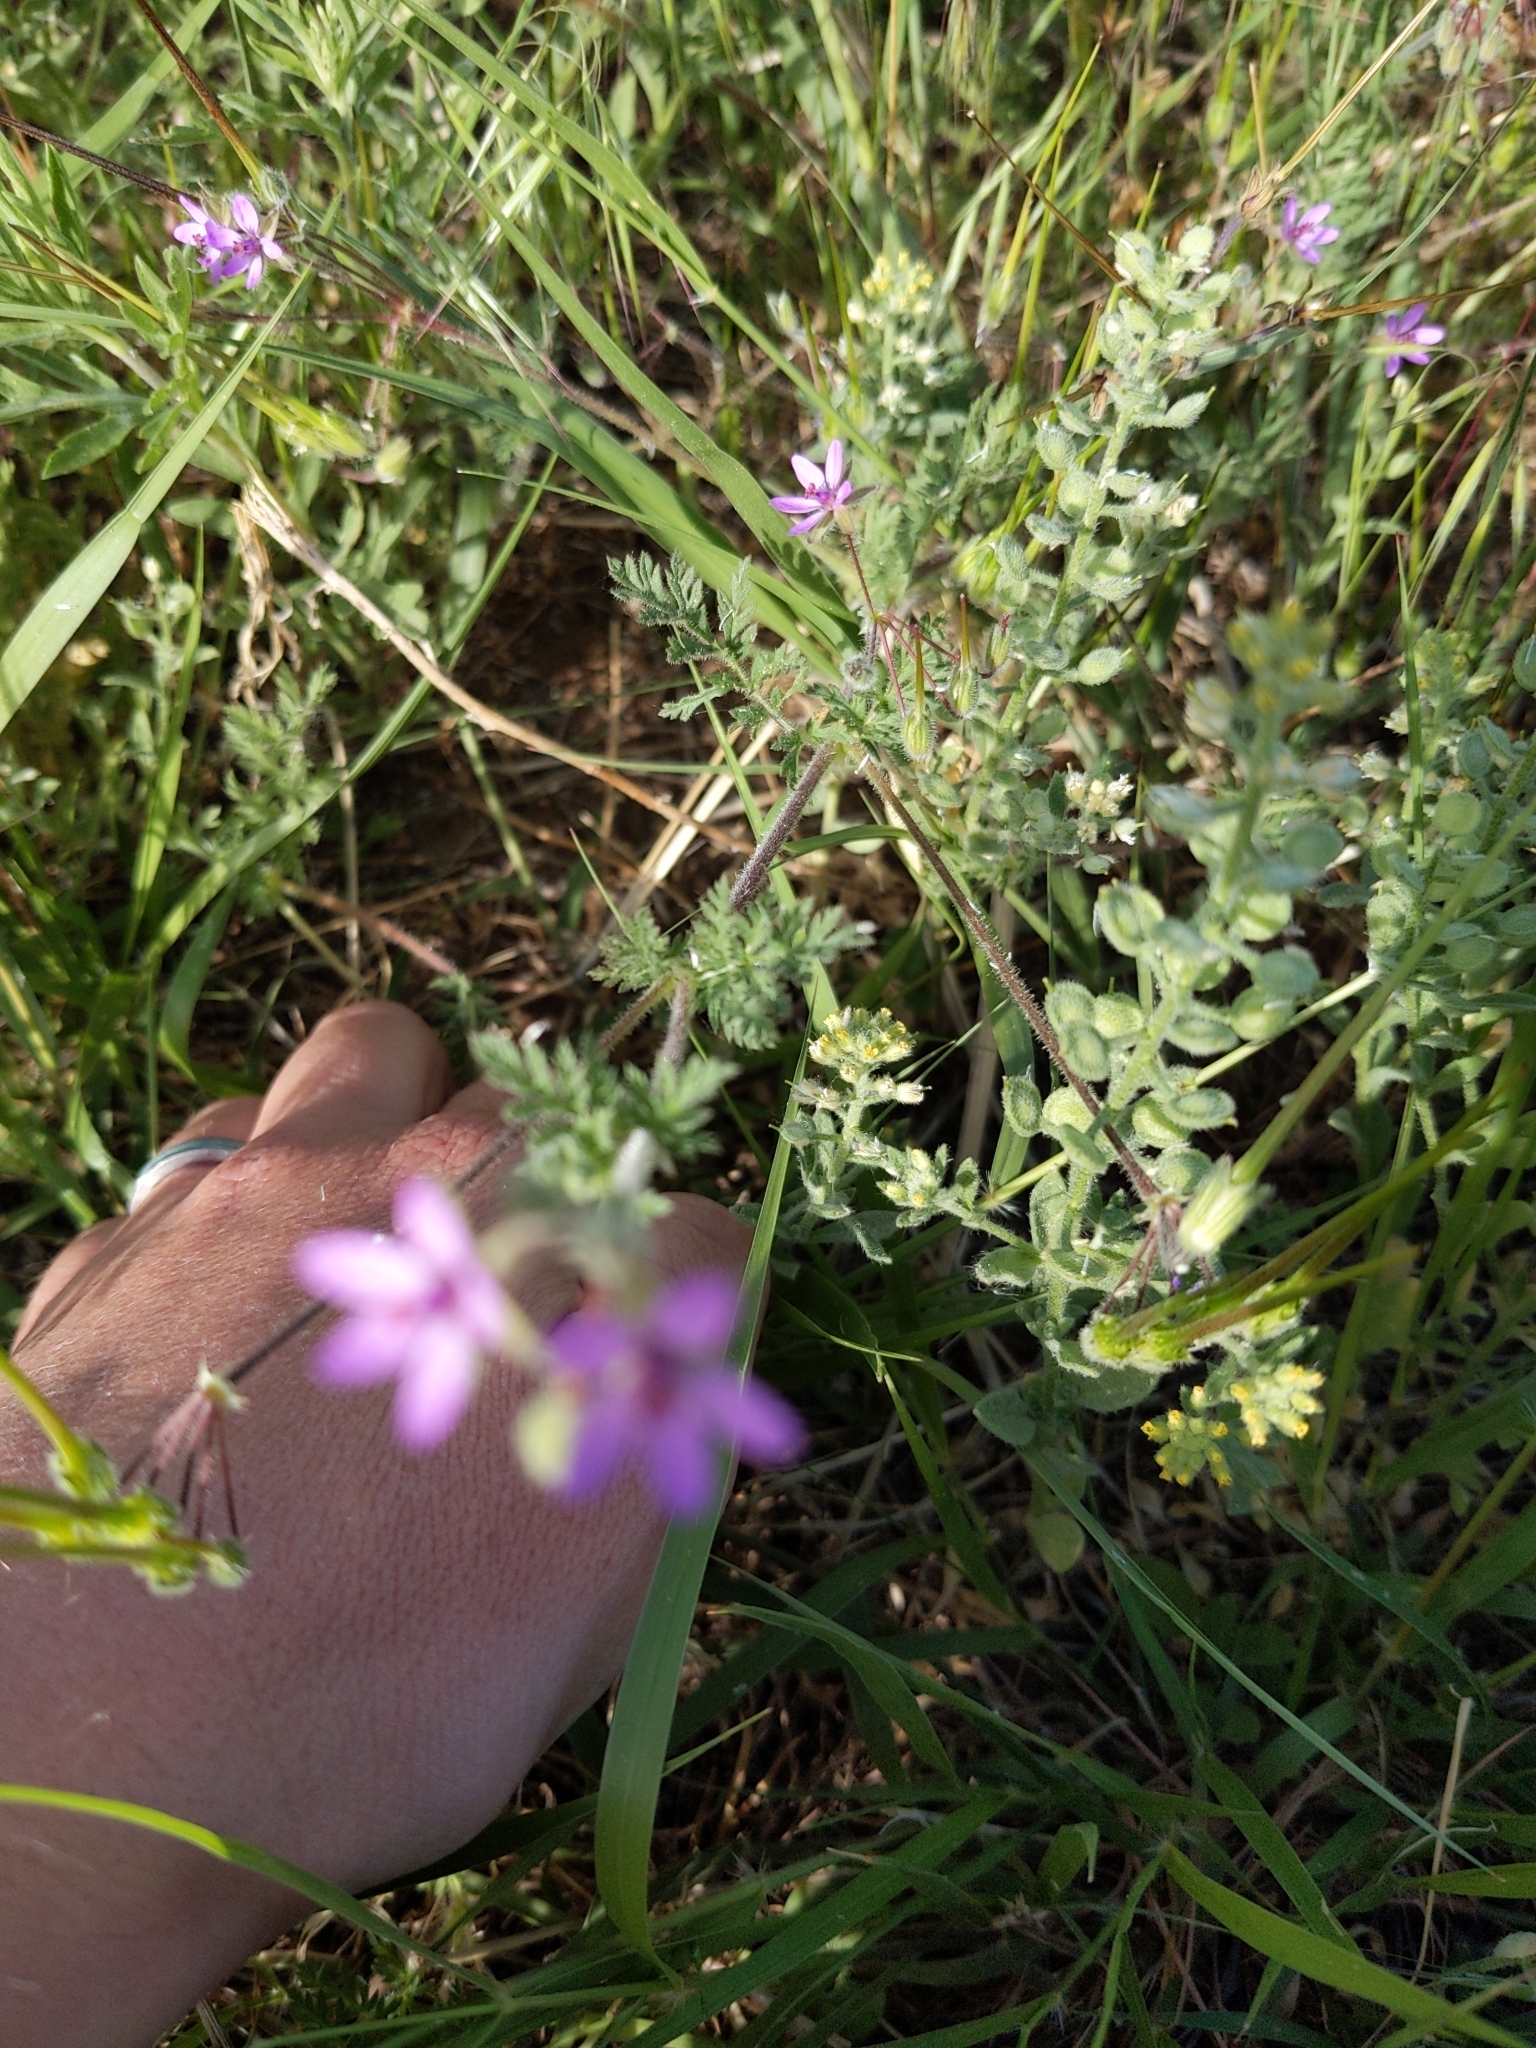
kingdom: Plantae
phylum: Tracheophyta
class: Magnoliopsida
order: Geraniales
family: Geraniaceae
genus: Erodium
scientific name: Erodium cicutarium
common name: Common stork's-bill
